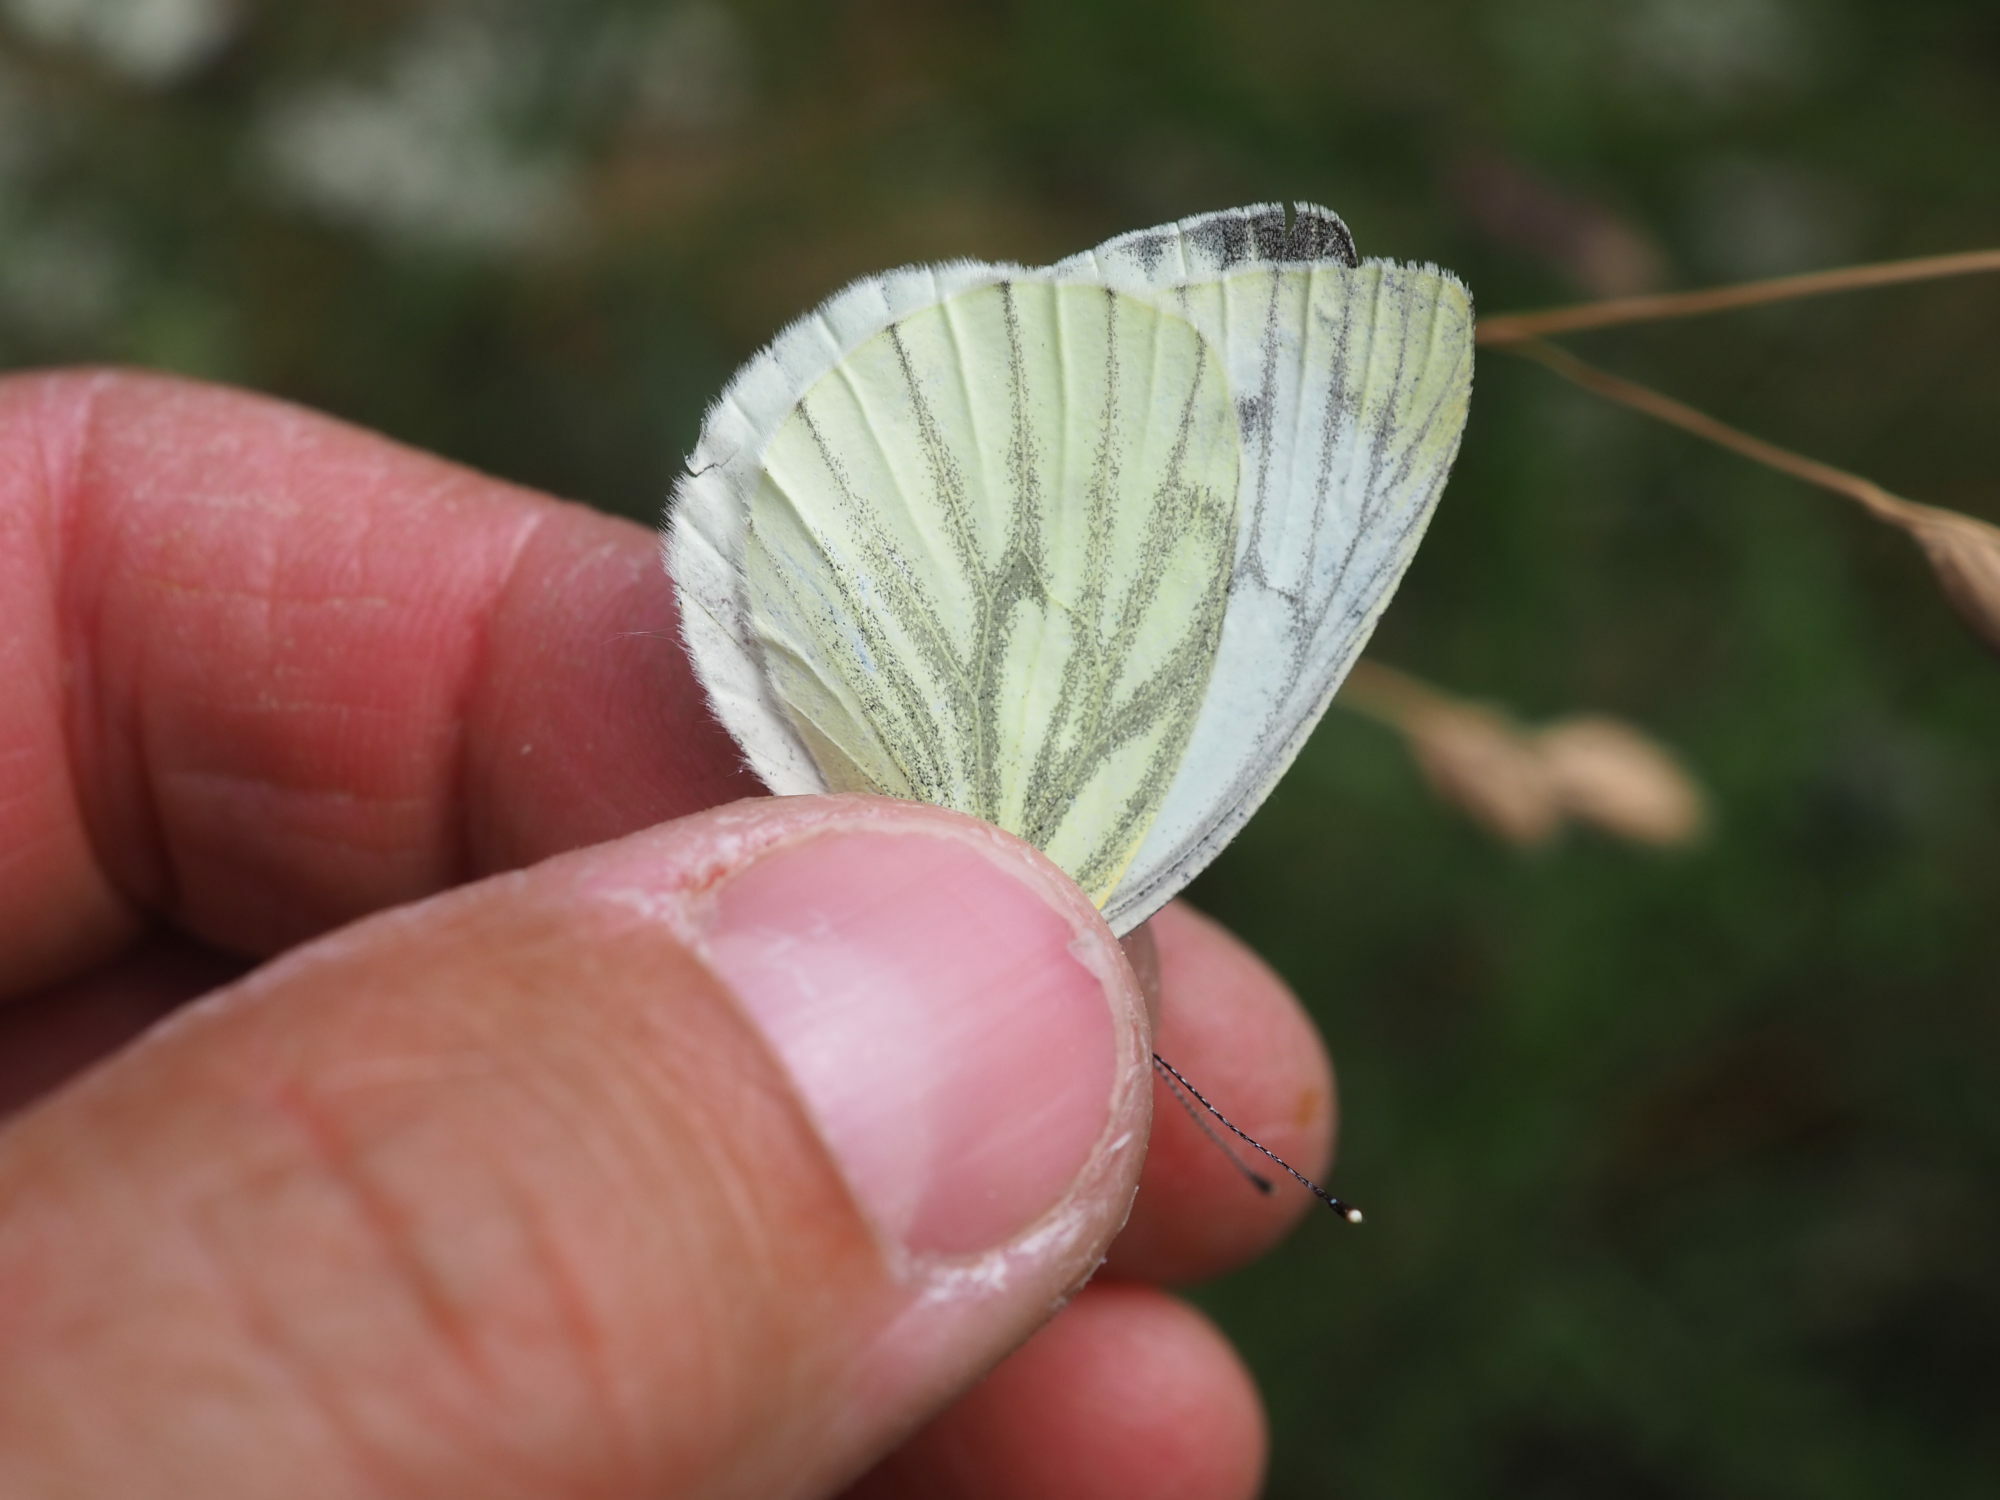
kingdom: Animalia
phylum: Arthropoda
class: Insecta
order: Lepidoptera
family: Pieridae
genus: Pieris
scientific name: Pieris napi
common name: Green-veined white
